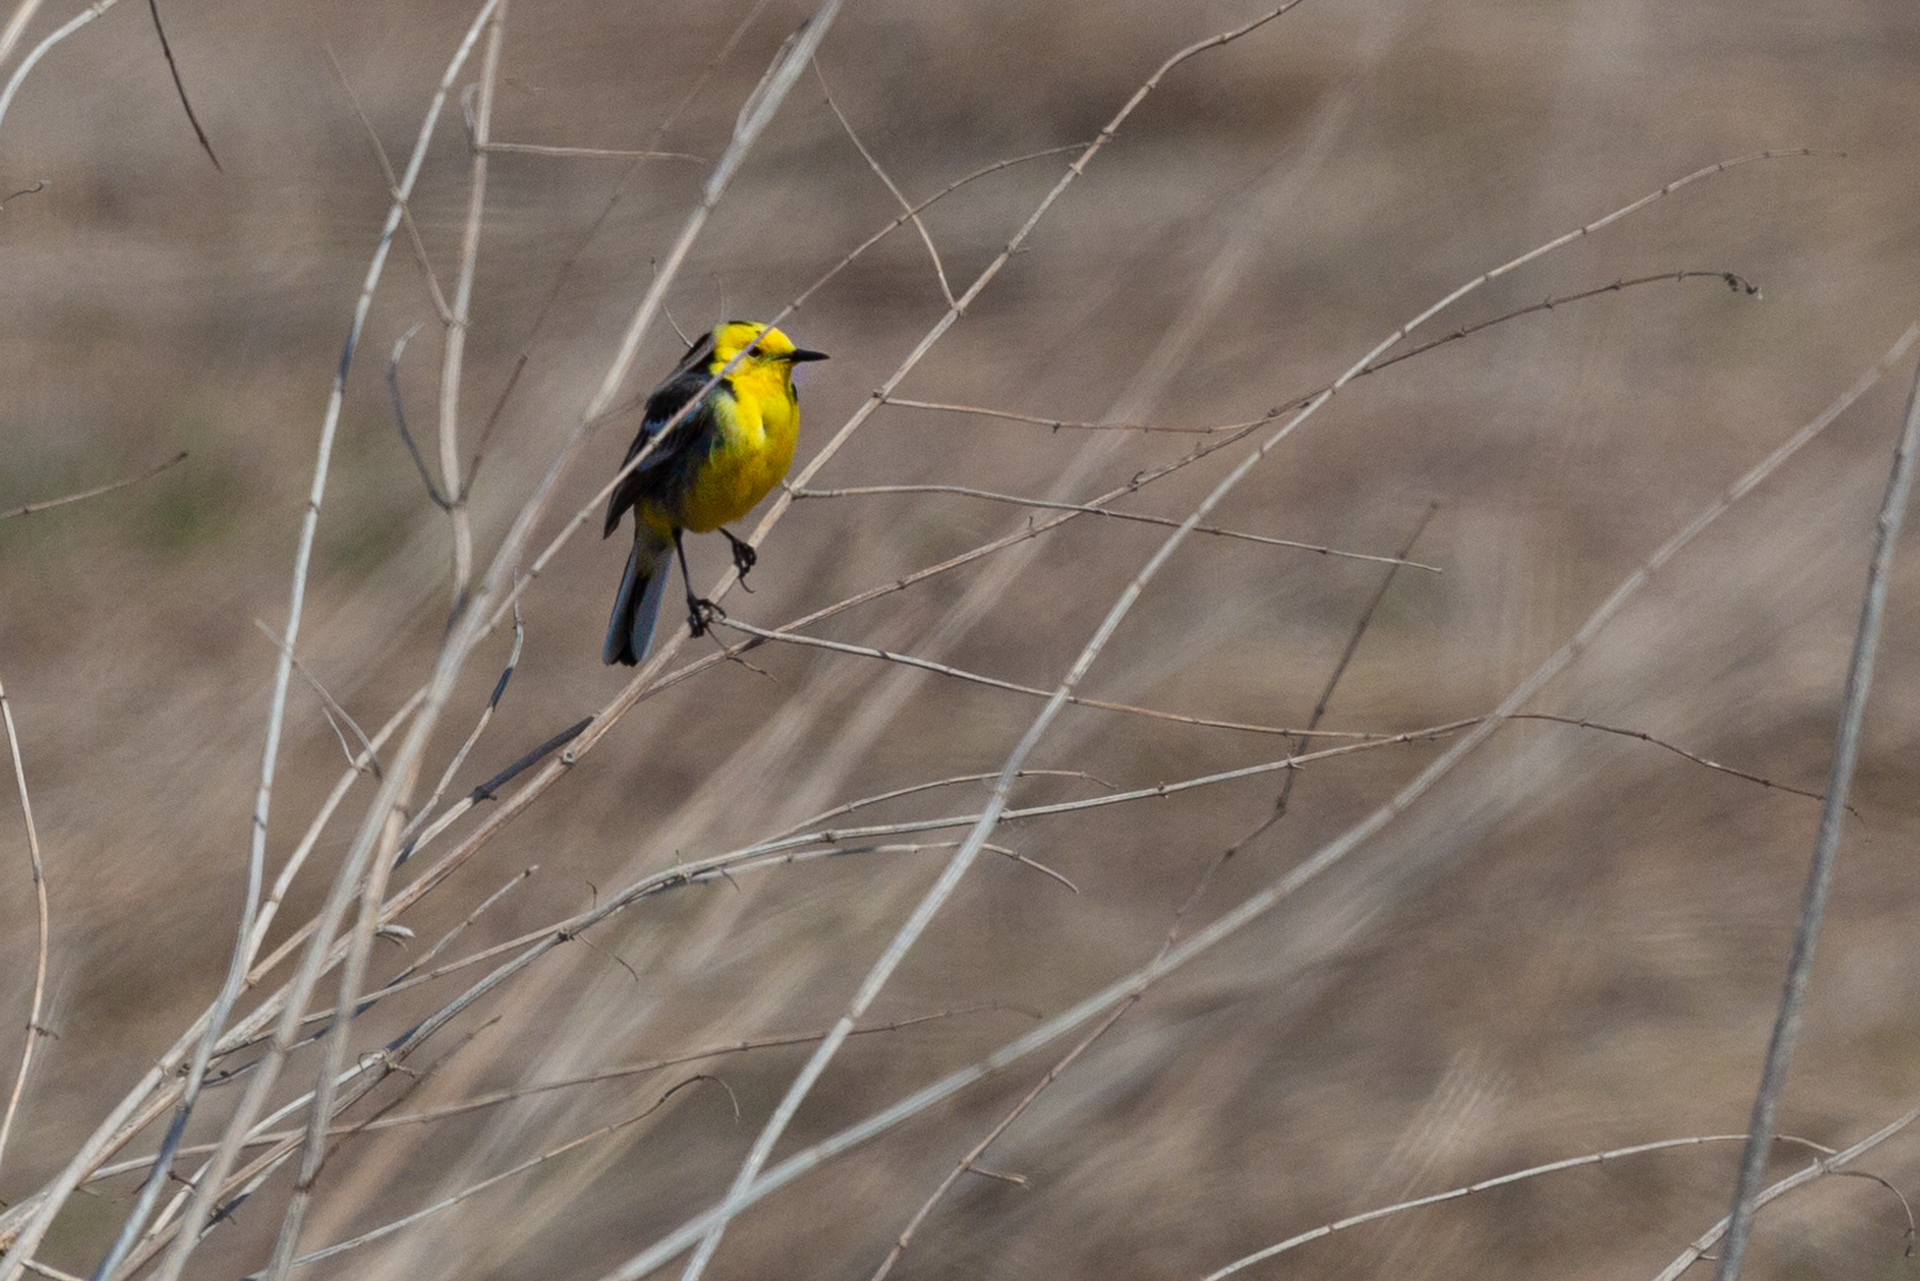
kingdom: Animalia
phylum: Chordata
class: Aves
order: Passeriformes
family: Motacillidae
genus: Motacilla
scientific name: Motacilla citreola
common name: Citrine wagtail
